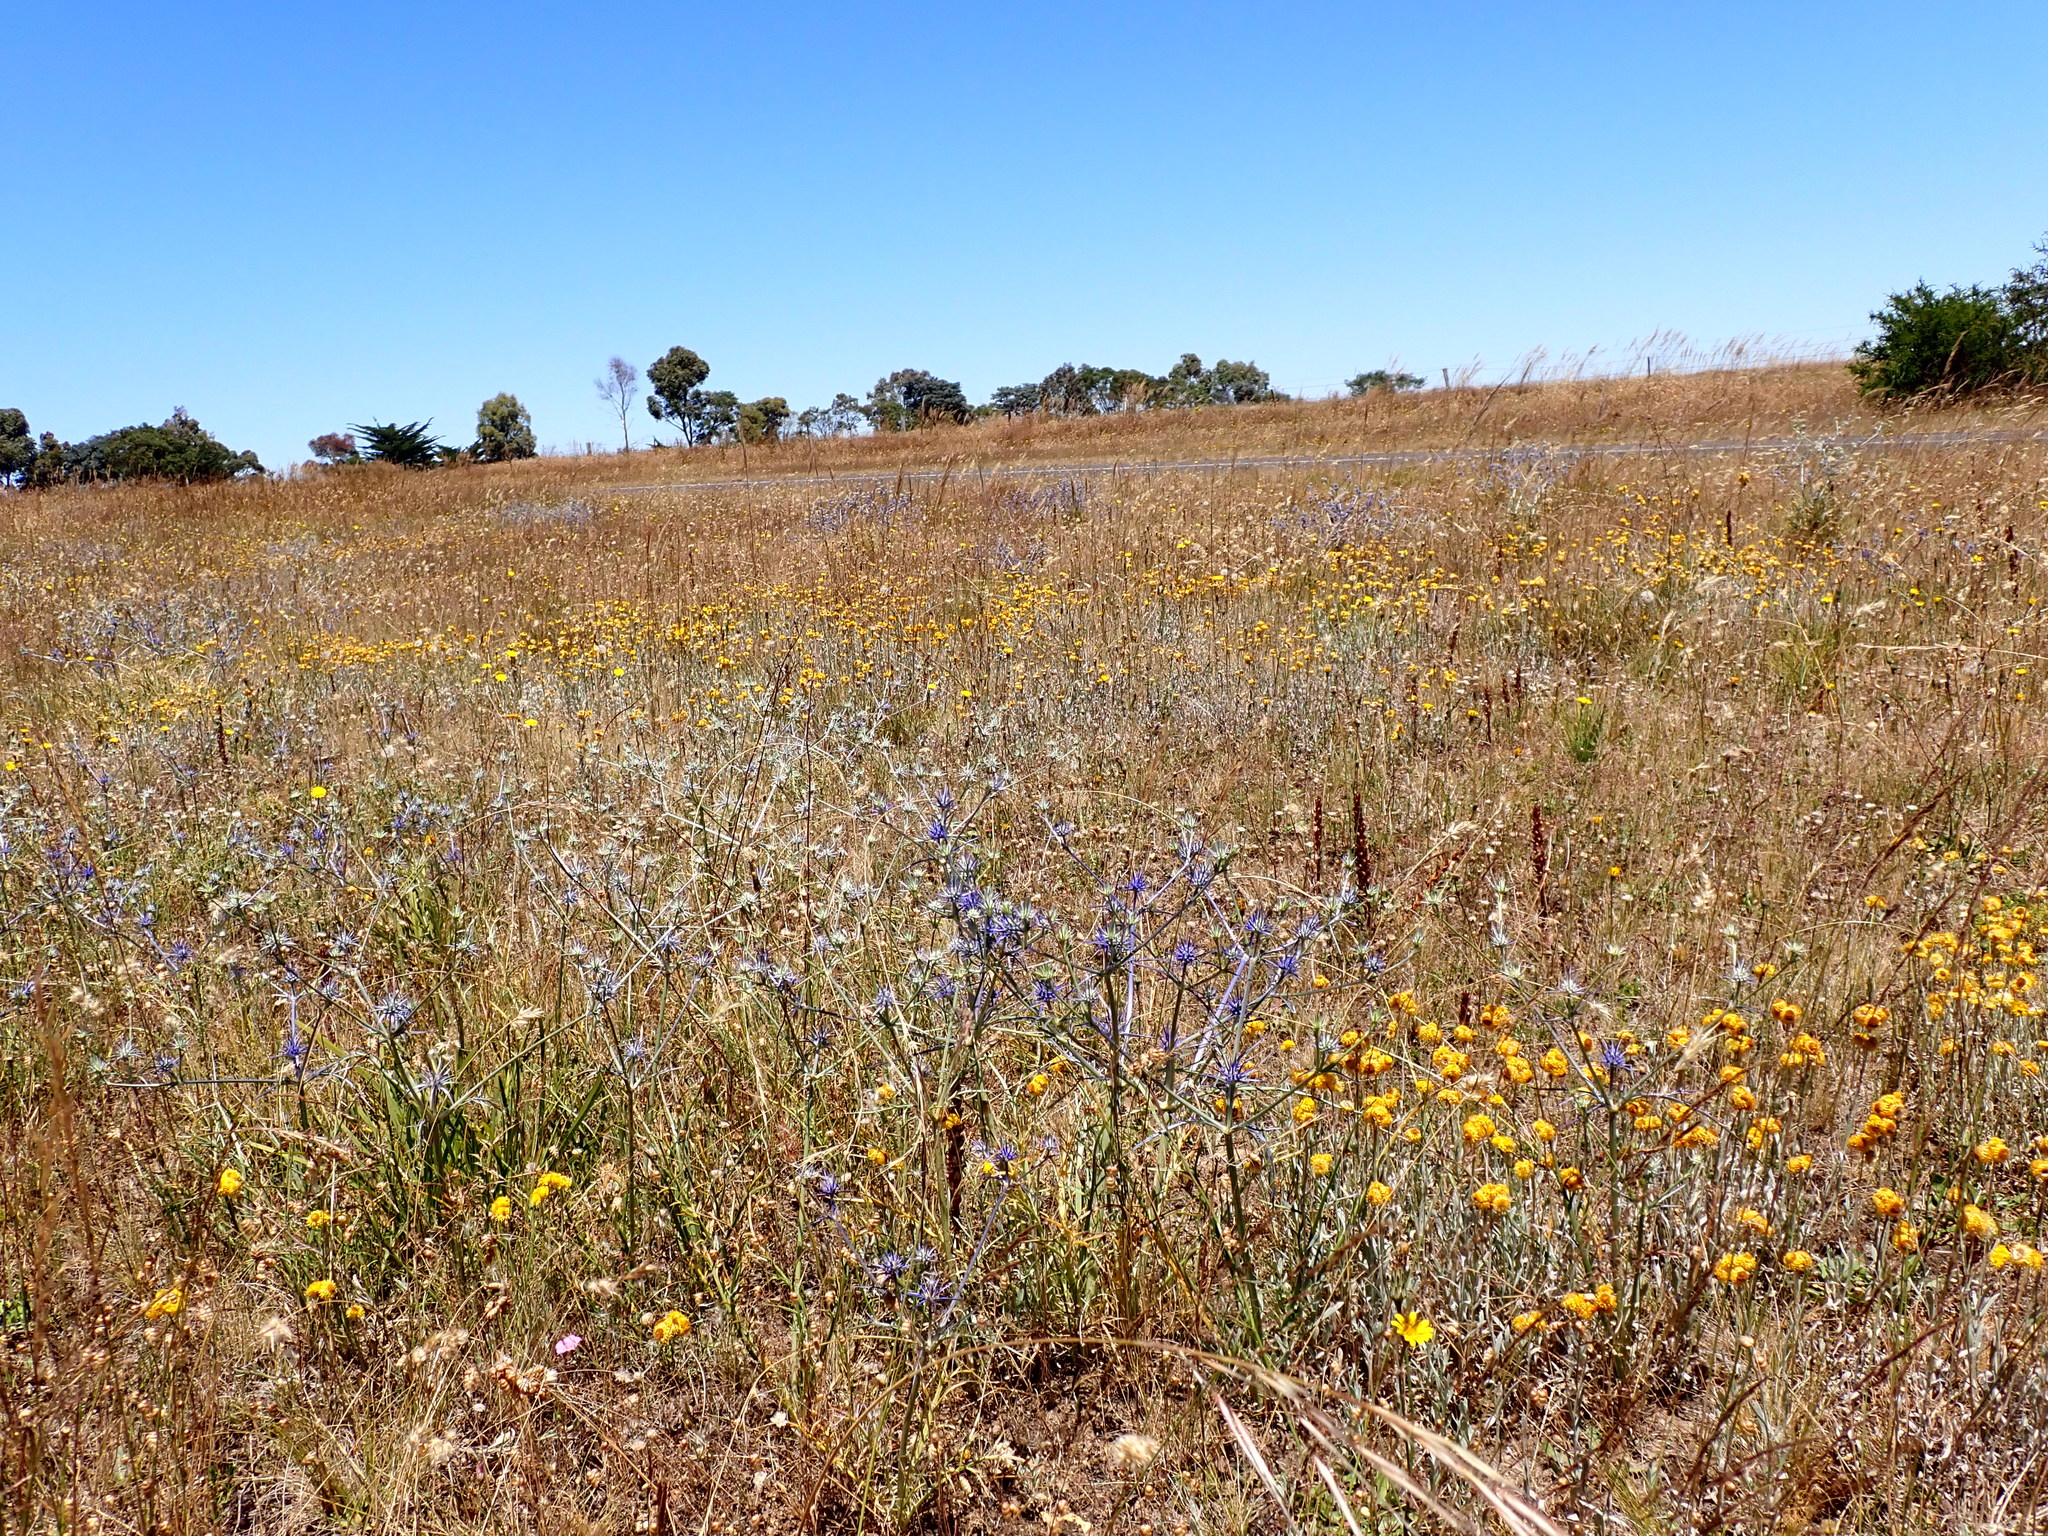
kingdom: Plantae
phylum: Tracheophyta
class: Magnoliopsida
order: Apiales
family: Apiaceae
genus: Eryngium
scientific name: Eryngium ovinum
